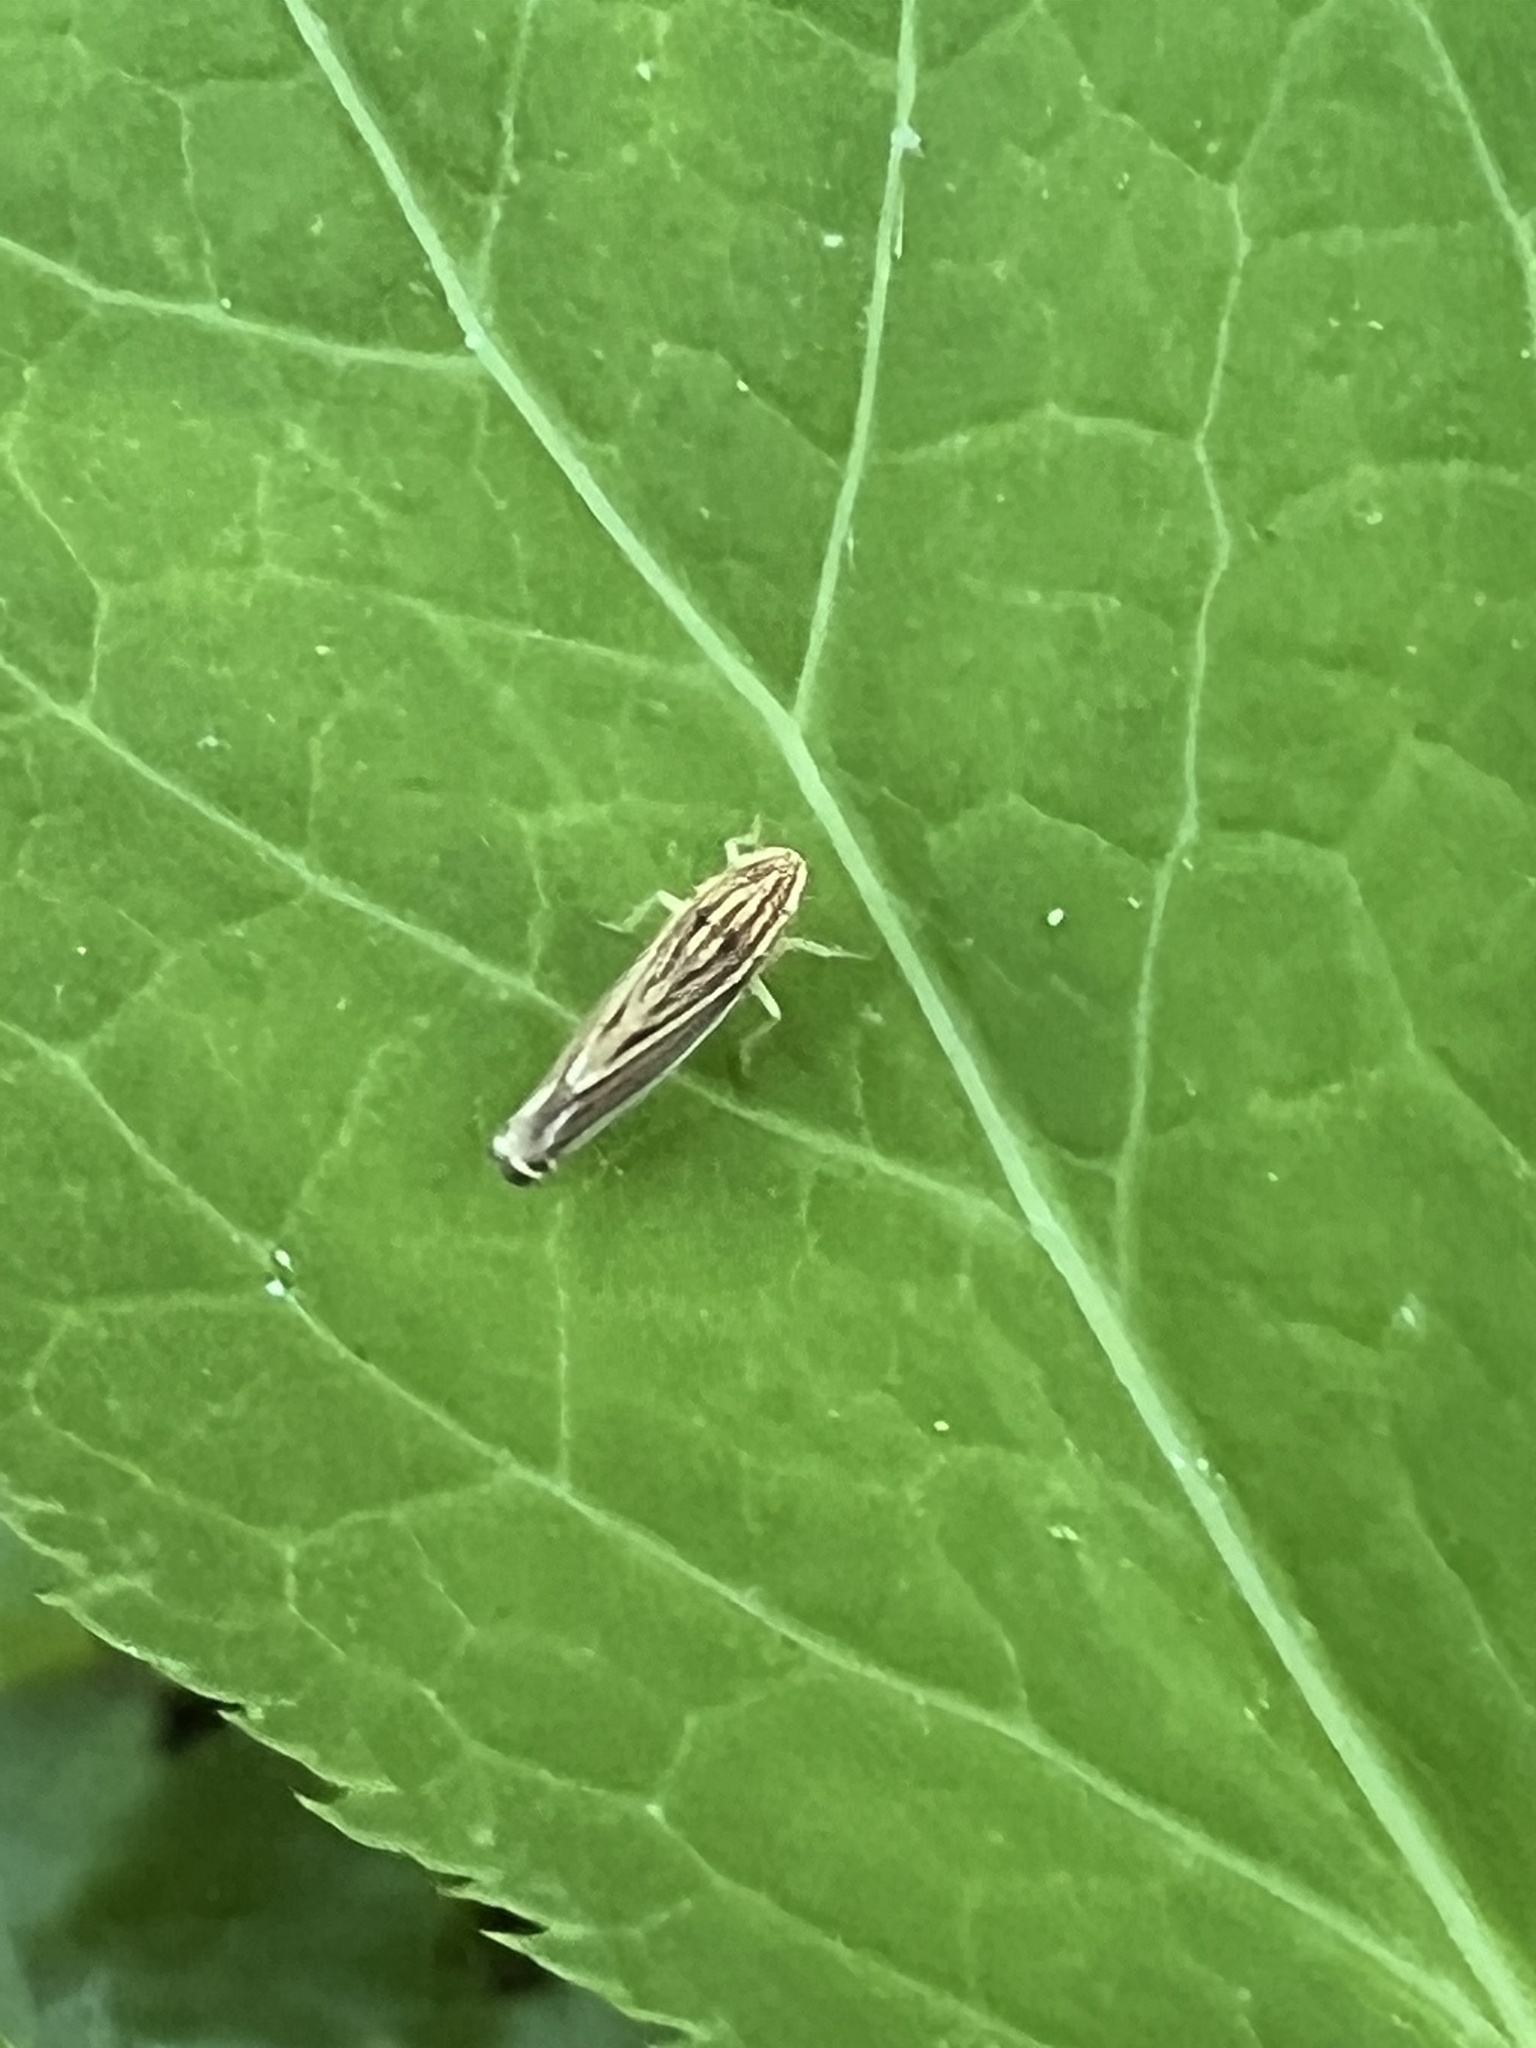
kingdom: Animalia
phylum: Arthropoda
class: Insecta
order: Hemiptera
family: Cicadellidae
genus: Sibovia
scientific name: Sibovia occatoria
